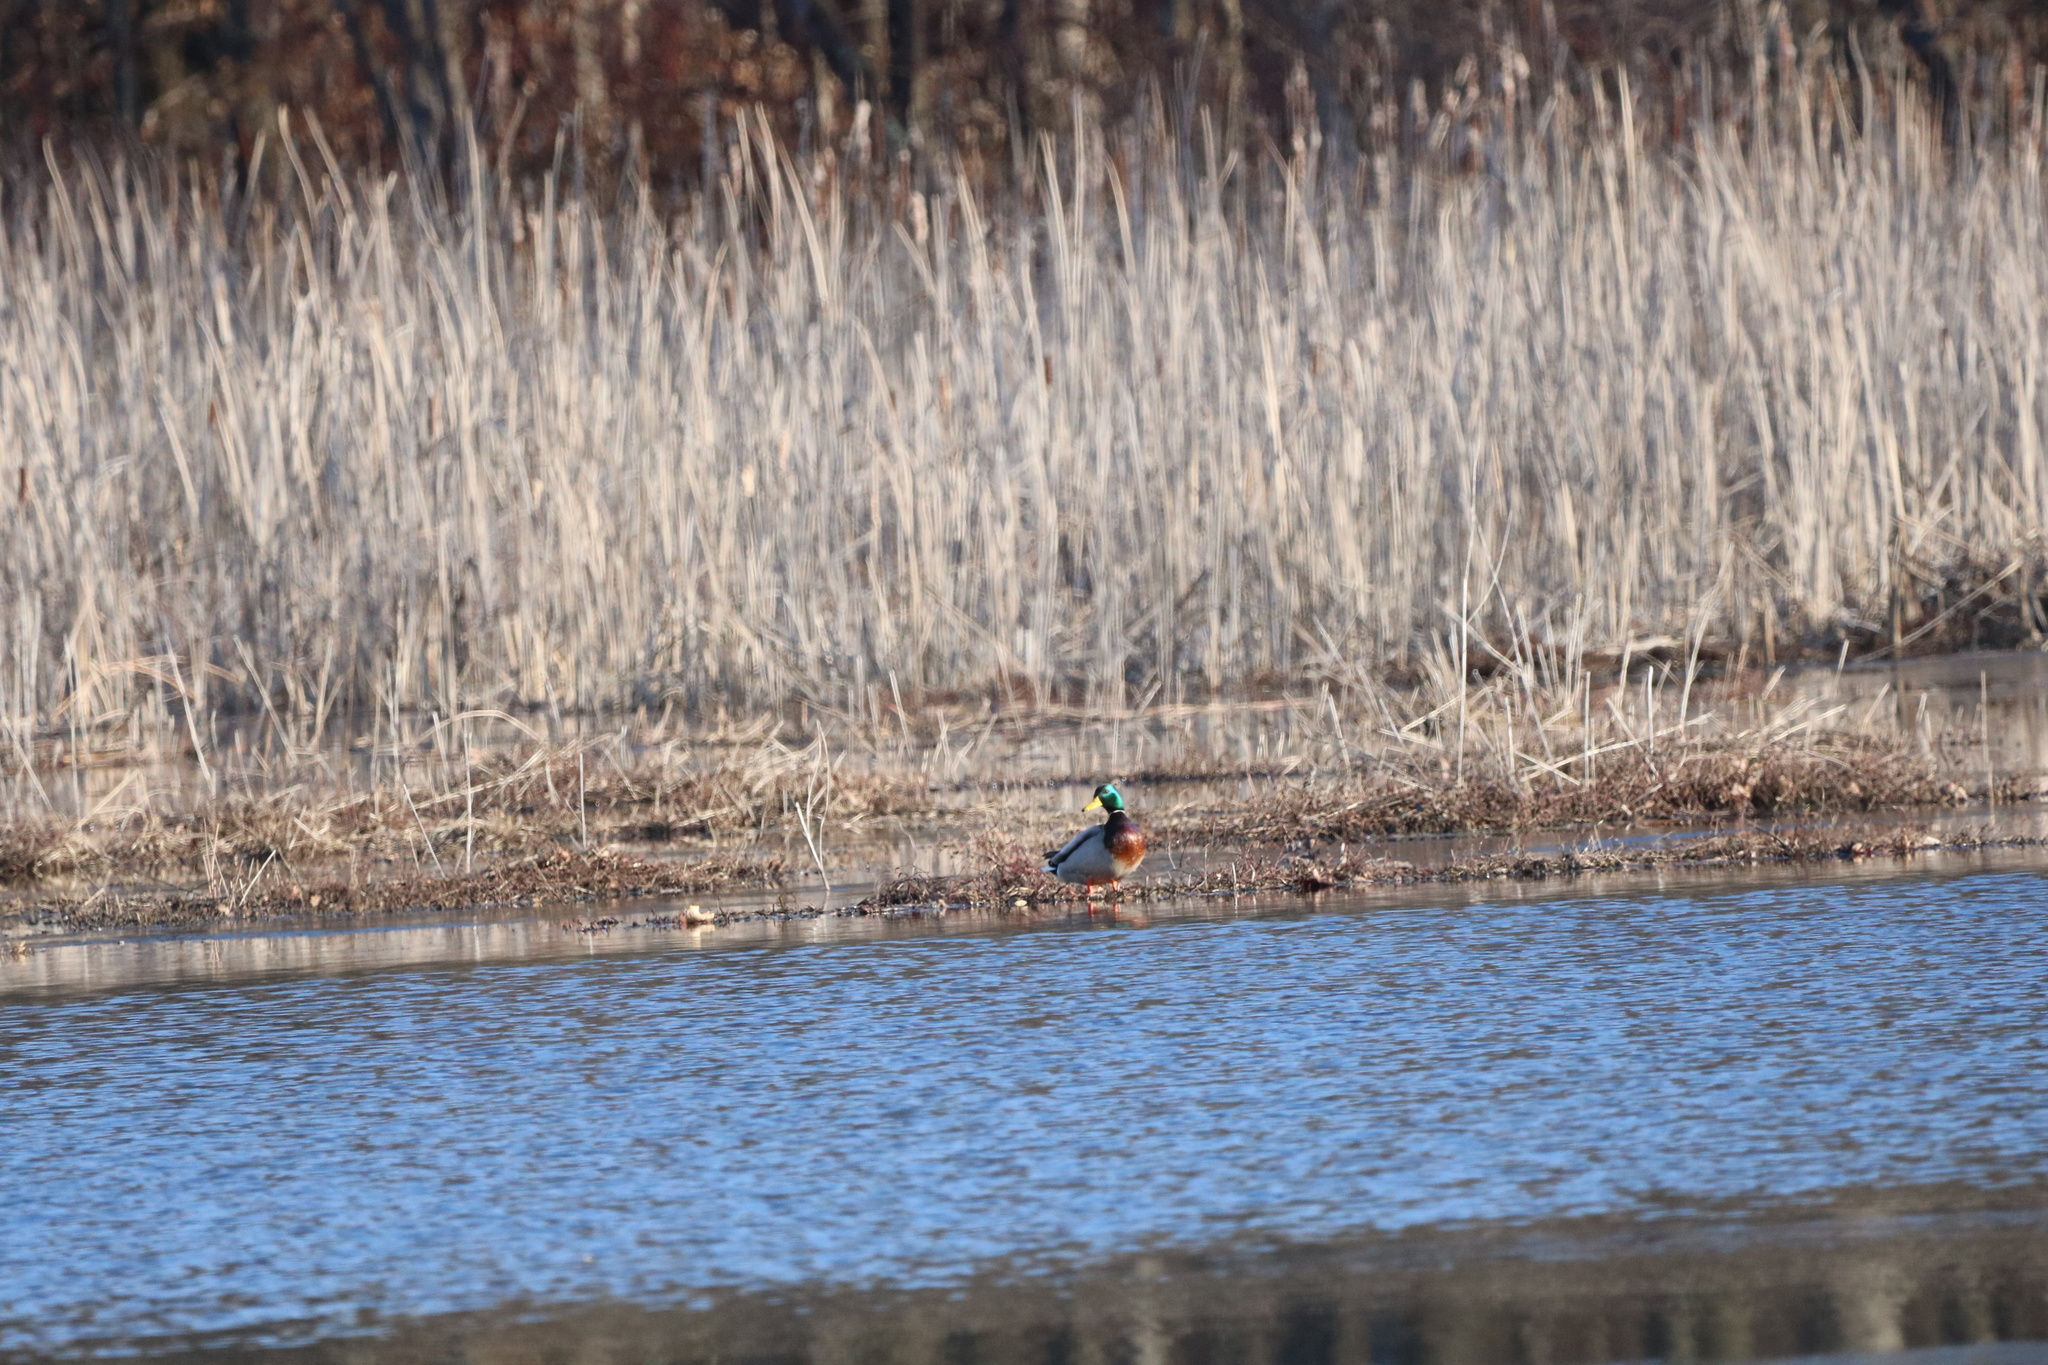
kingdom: Animalia
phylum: Chordata
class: Aves
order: Anseriformes
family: Anatidae
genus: Anas
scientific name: Anas platyrhynchos
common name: Mallard
